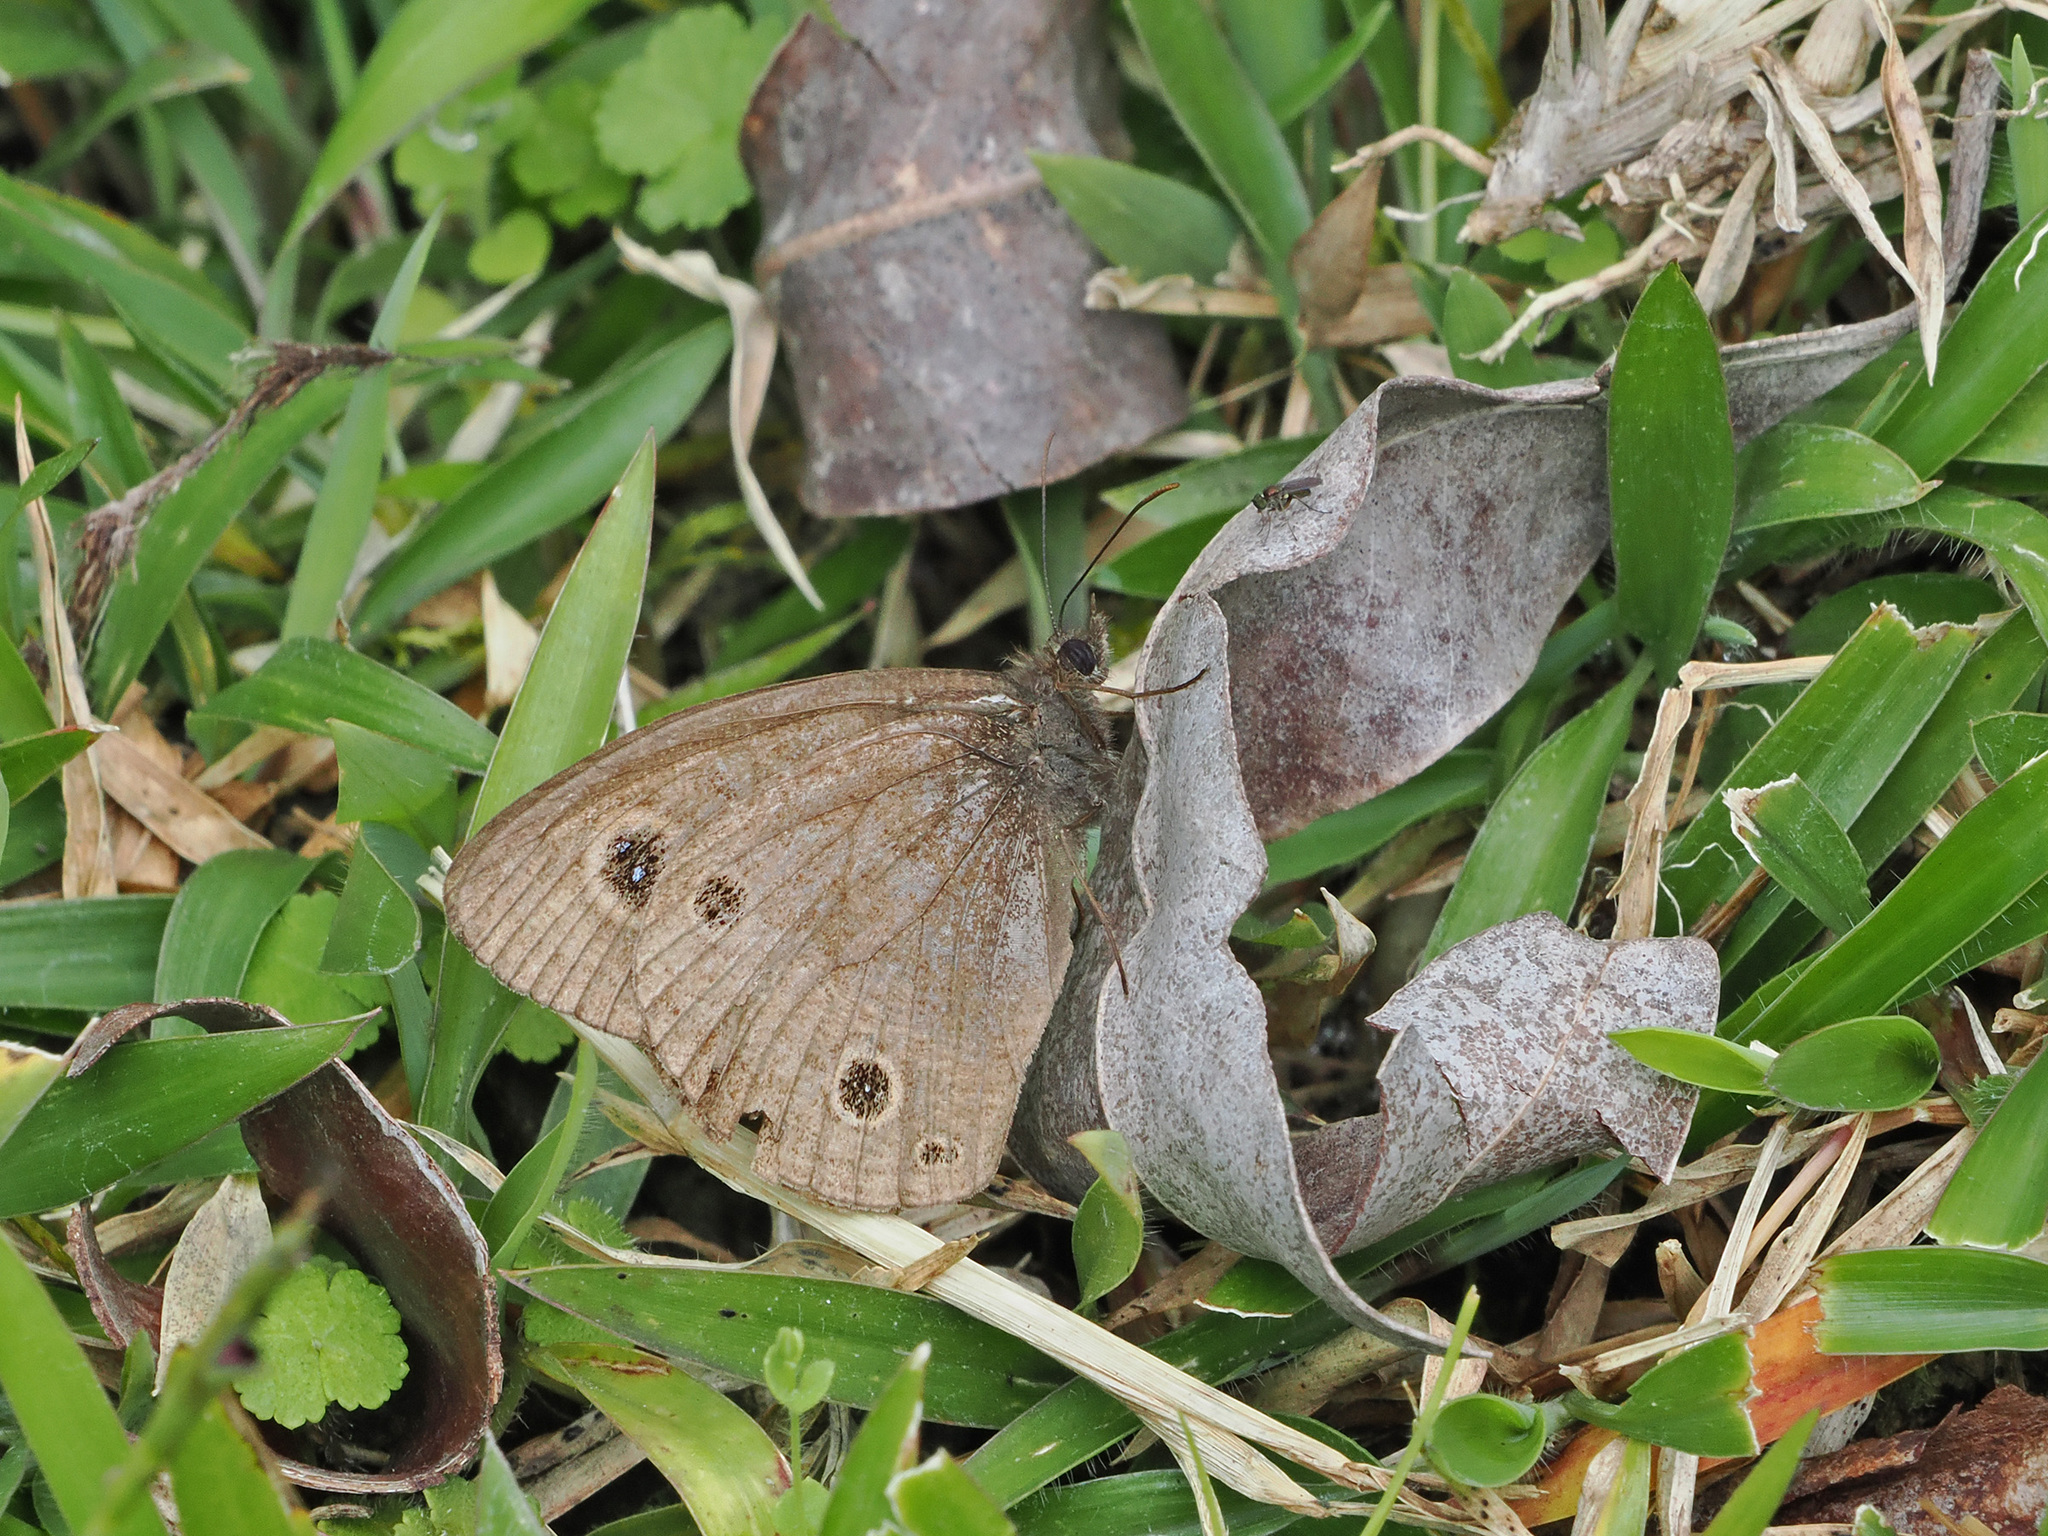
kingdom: Animalia
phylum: Arthropoda
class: Insecta
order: Lepidoptera
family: Nymphalidae
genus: Ypthima
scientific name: Ypthima ancus
